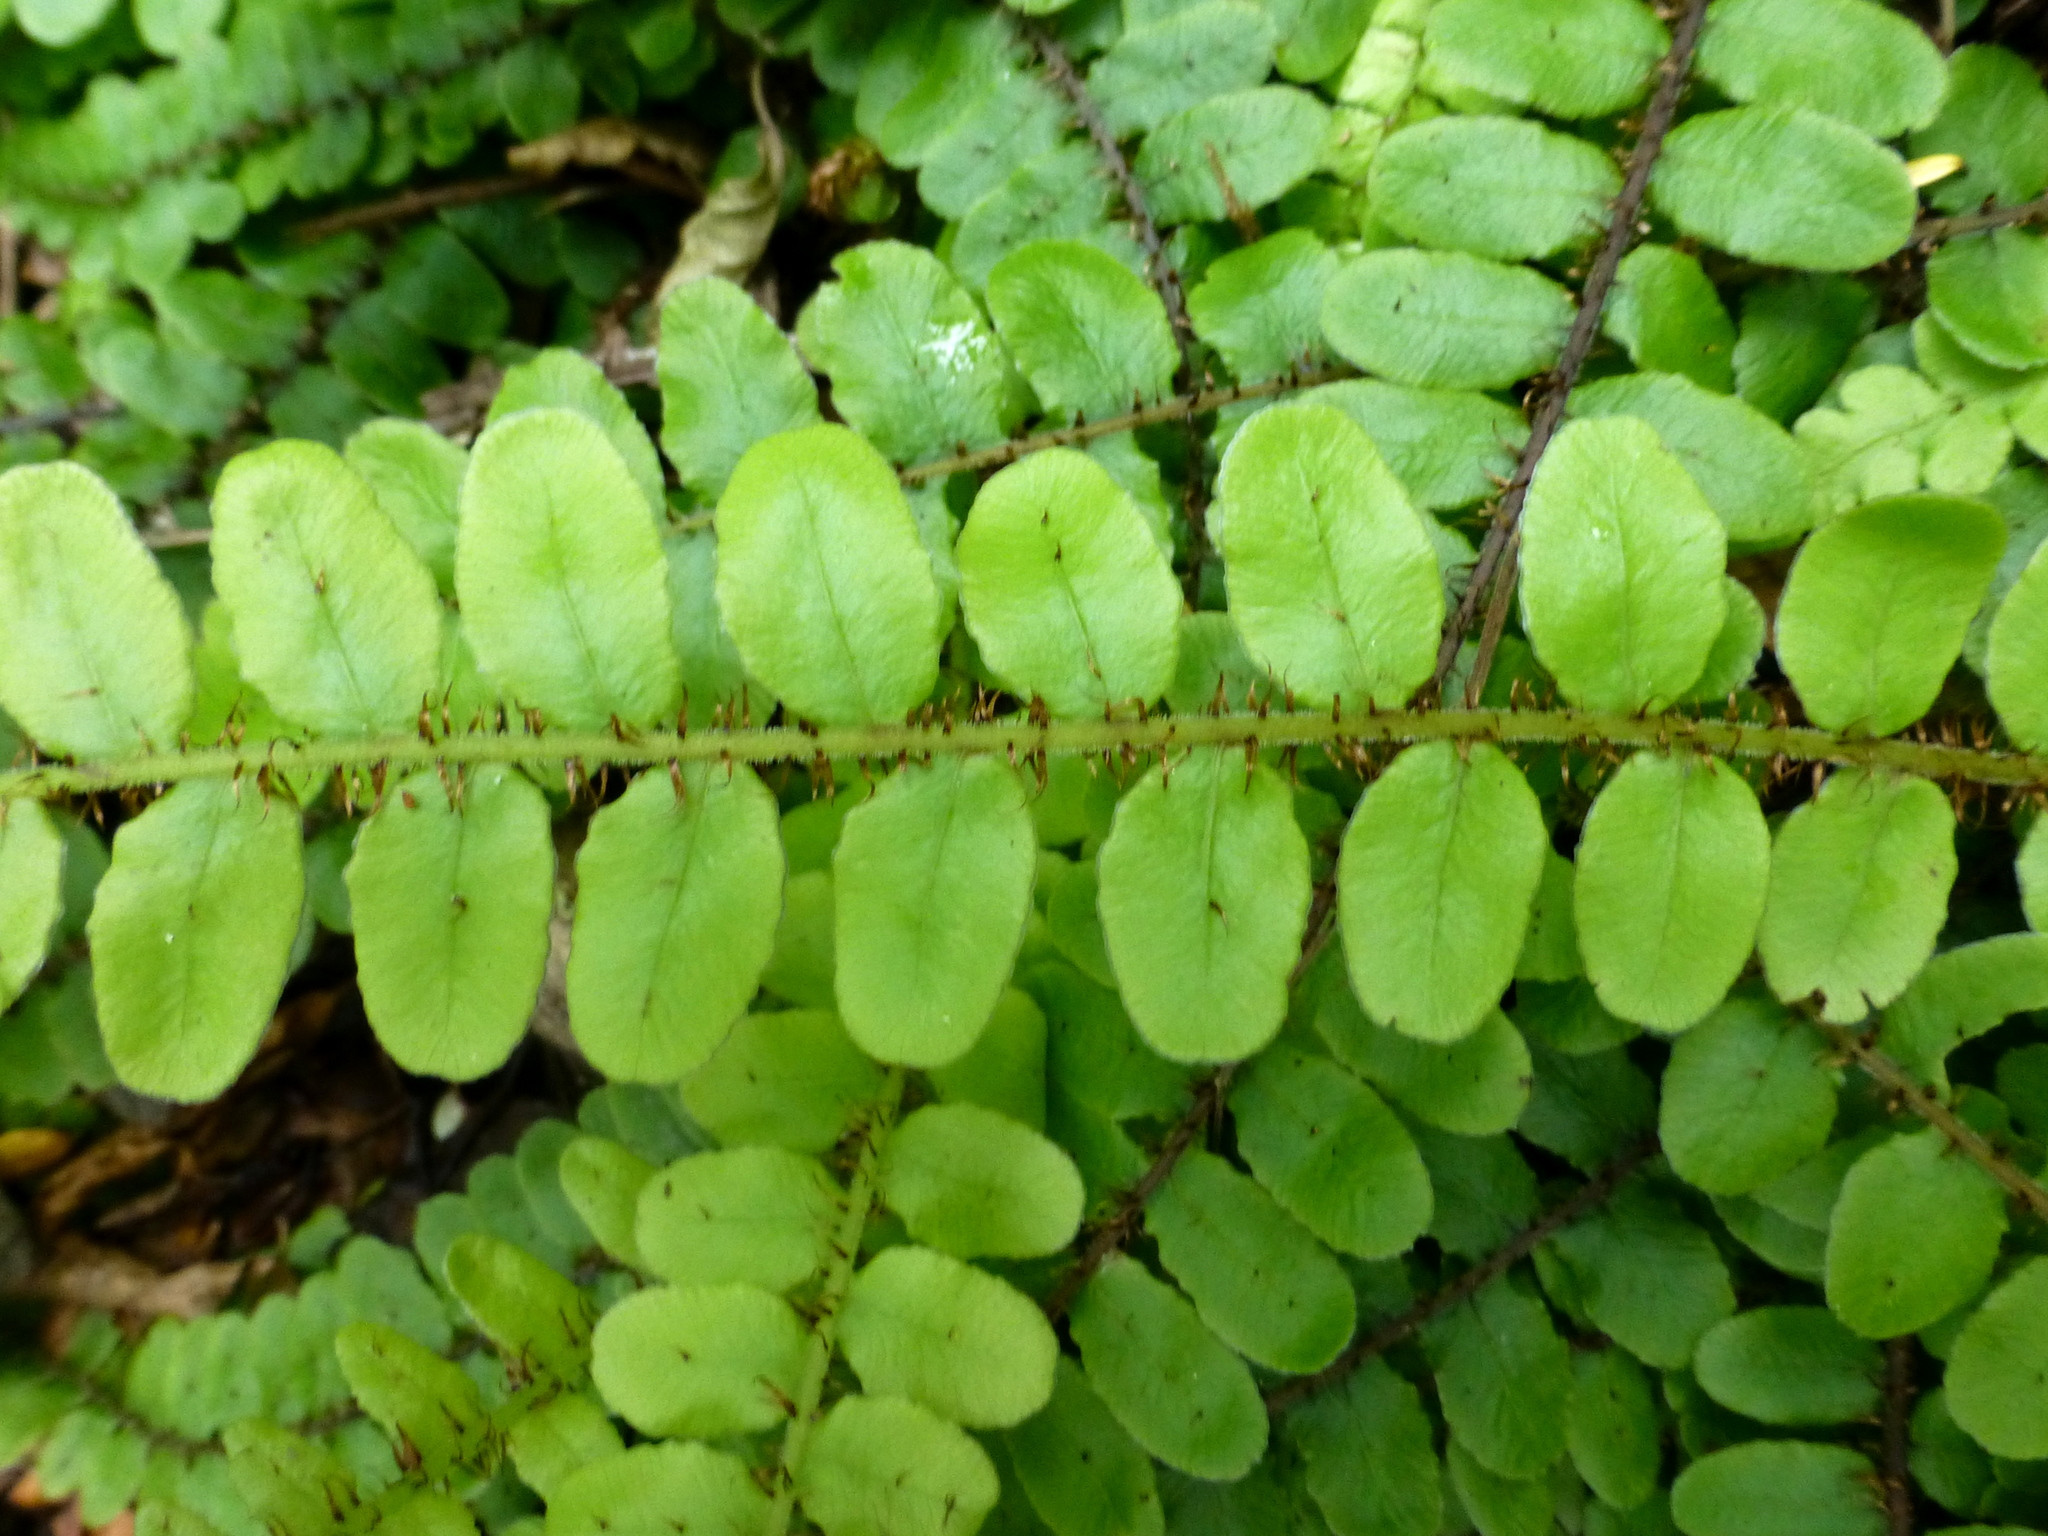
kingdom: Plantae
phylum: Tracheophyta
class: Polypodiopsida
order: Polypodiales
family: Blechnaceae
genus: Cranfillia
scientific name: Cranfillia fluviatilis
